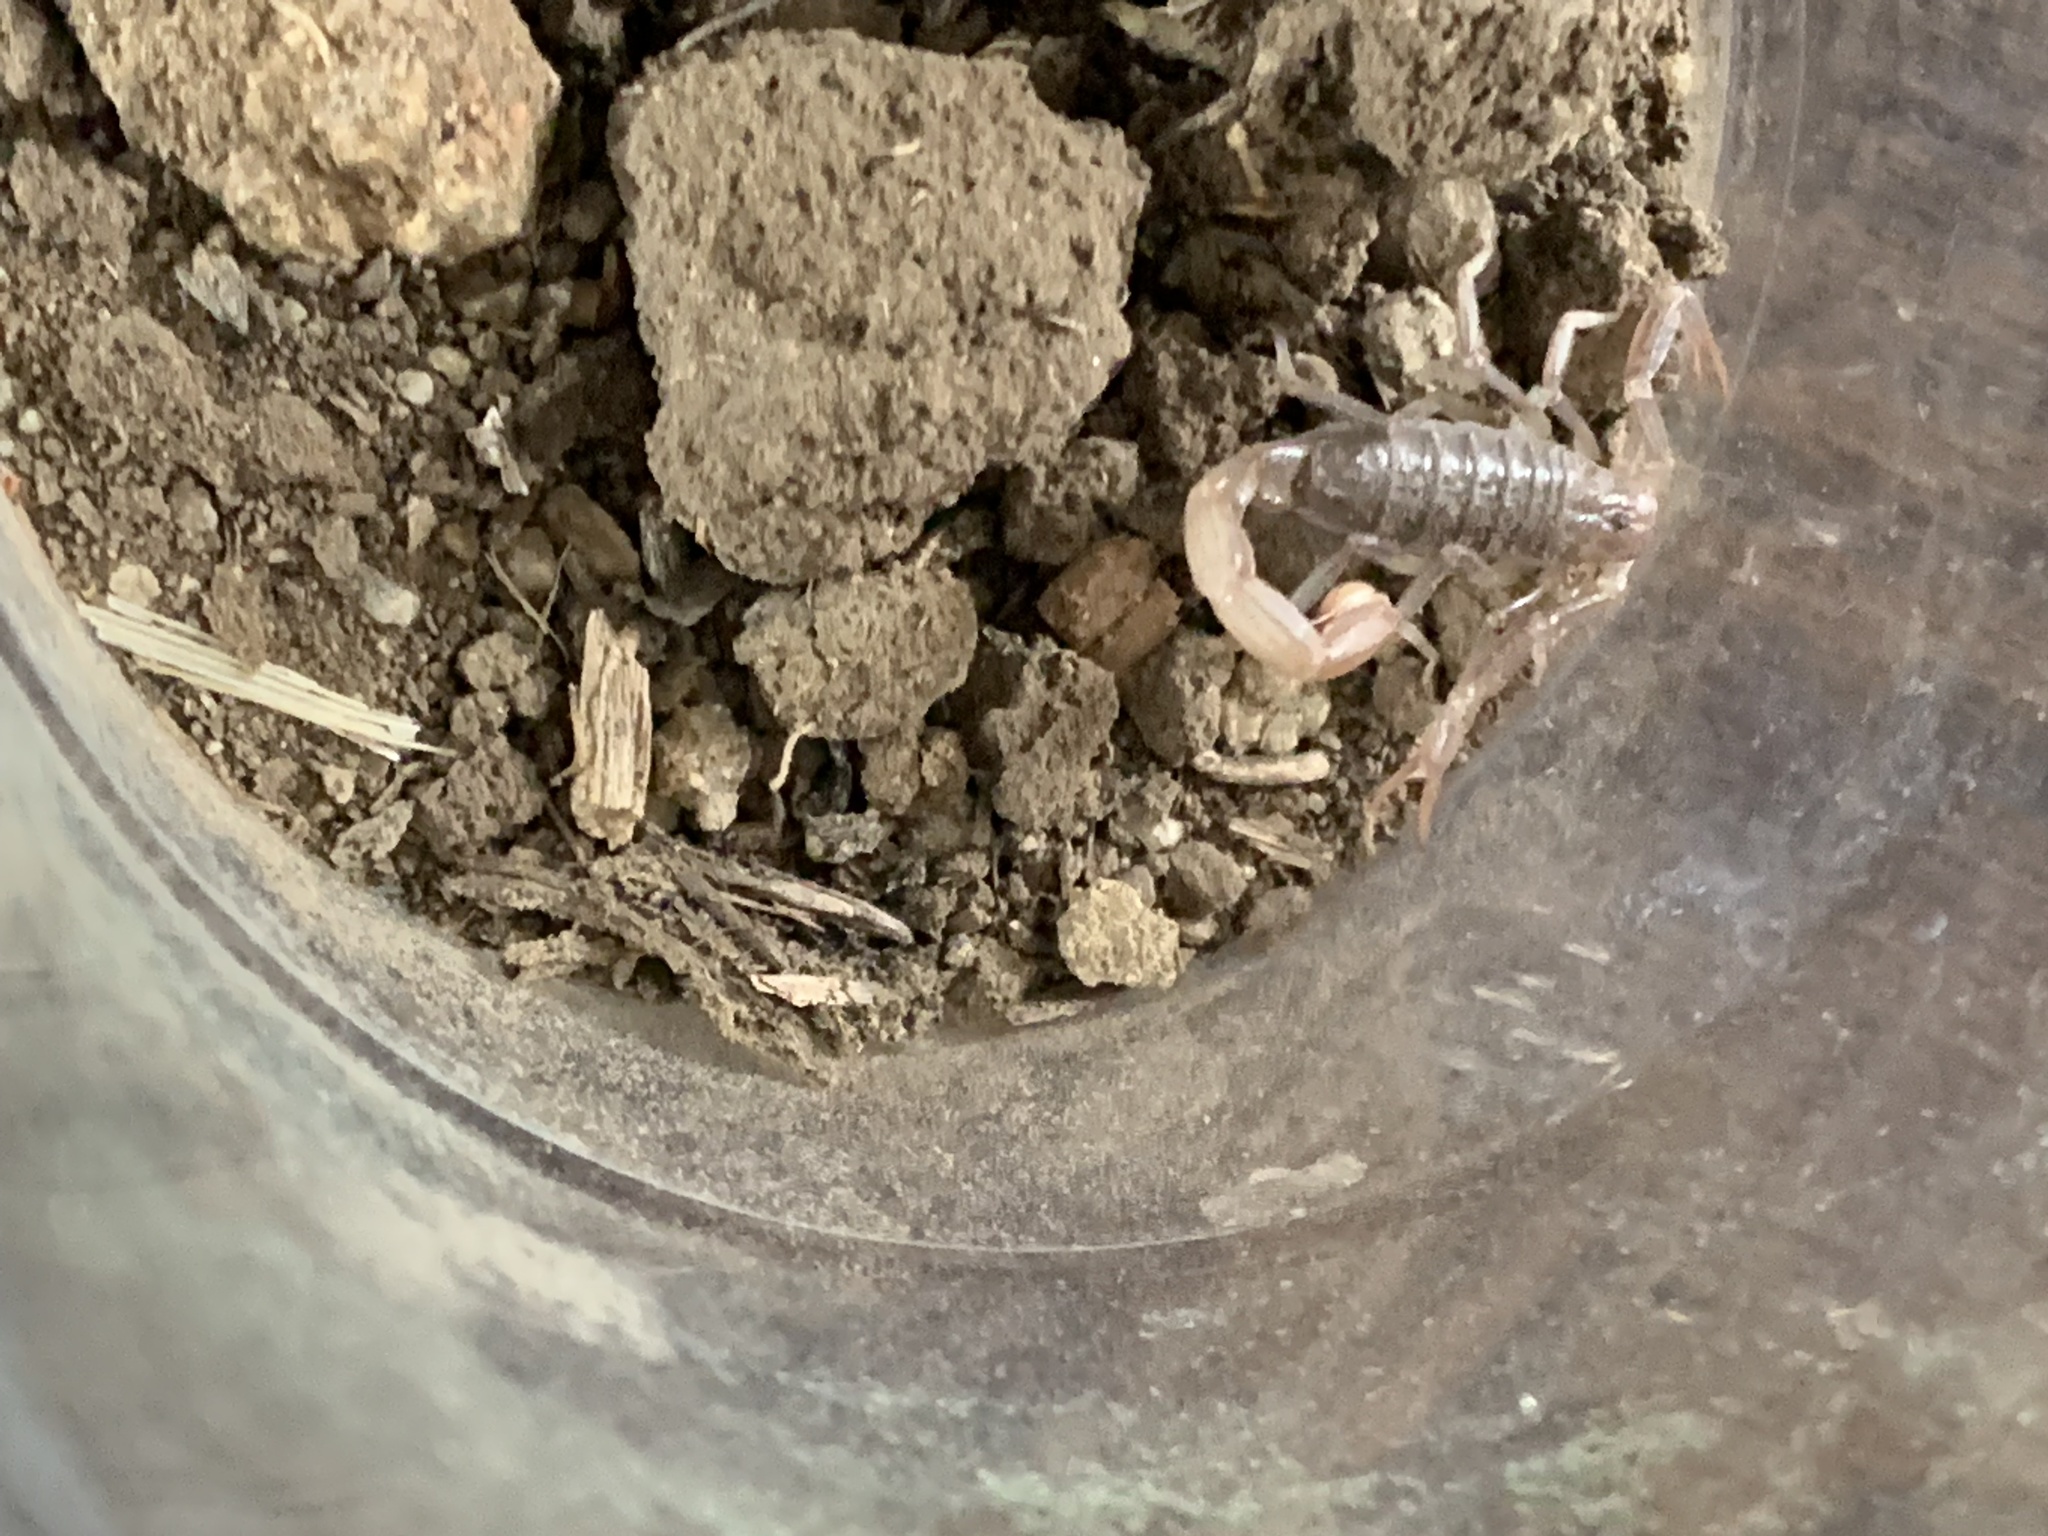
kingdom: Animalia
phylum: Arthropoda
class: Arachnida
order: Scorpiones
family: Vaejovidae
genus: Paruroctonus
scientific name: Paruroctonus silvestrii
